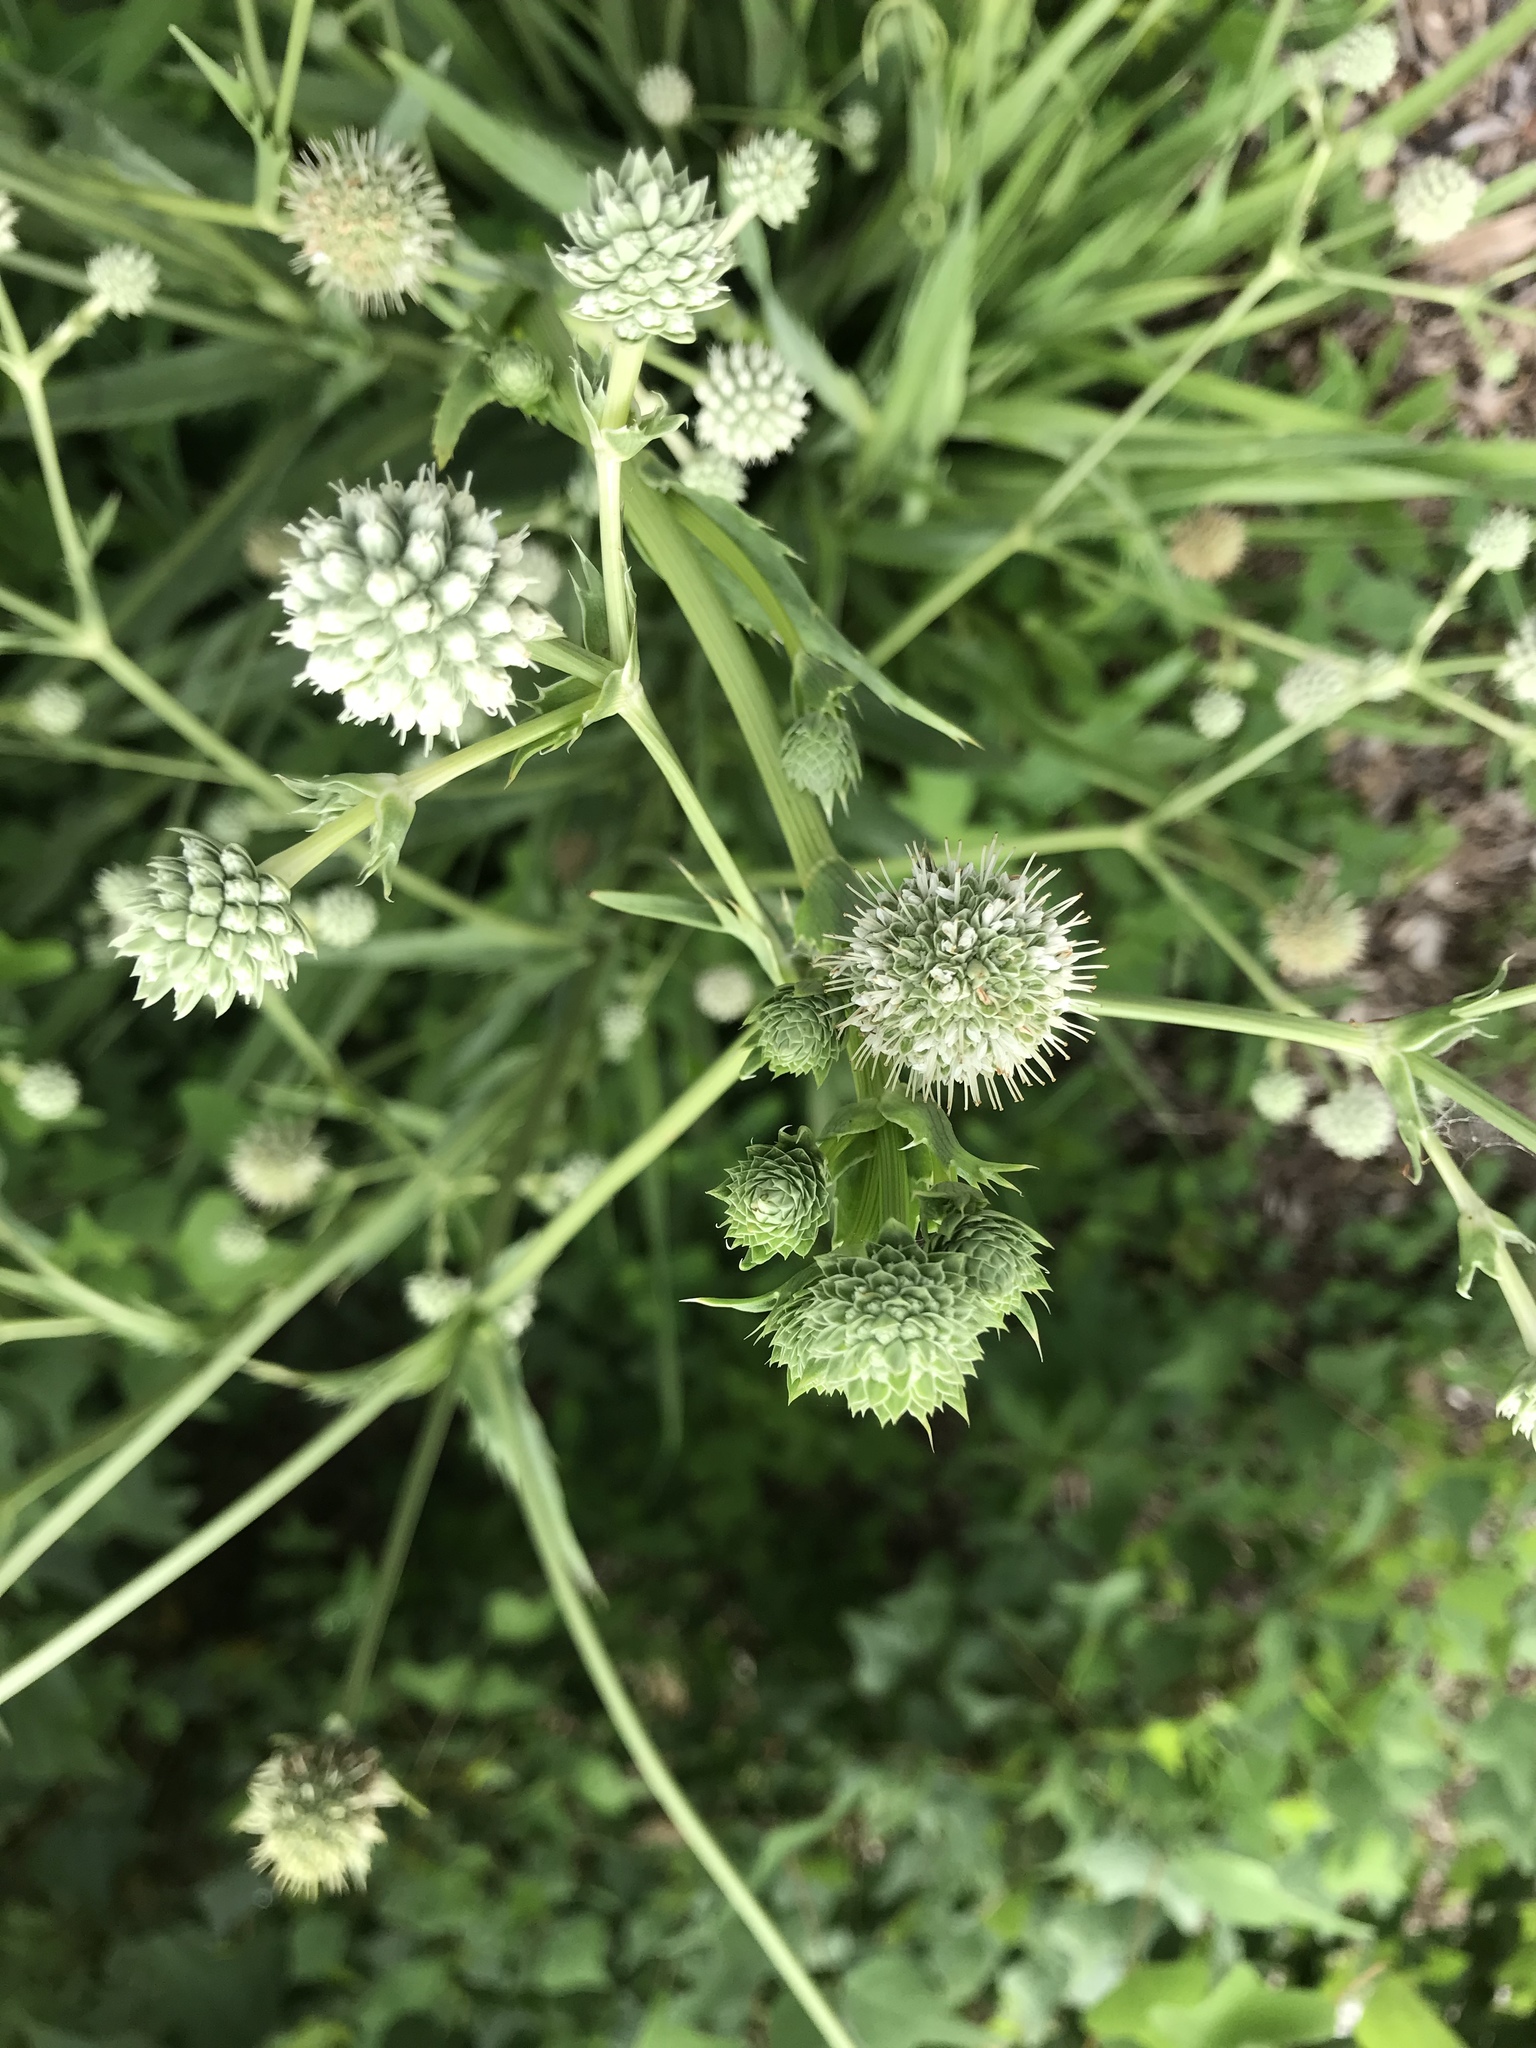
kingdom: Plantae
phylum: Tracheophyta
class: Magnoliopsida
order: Apiales
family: Apiaceae
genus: Eryngium
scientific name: Eryngium yuccifolium
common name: Button eryngo
